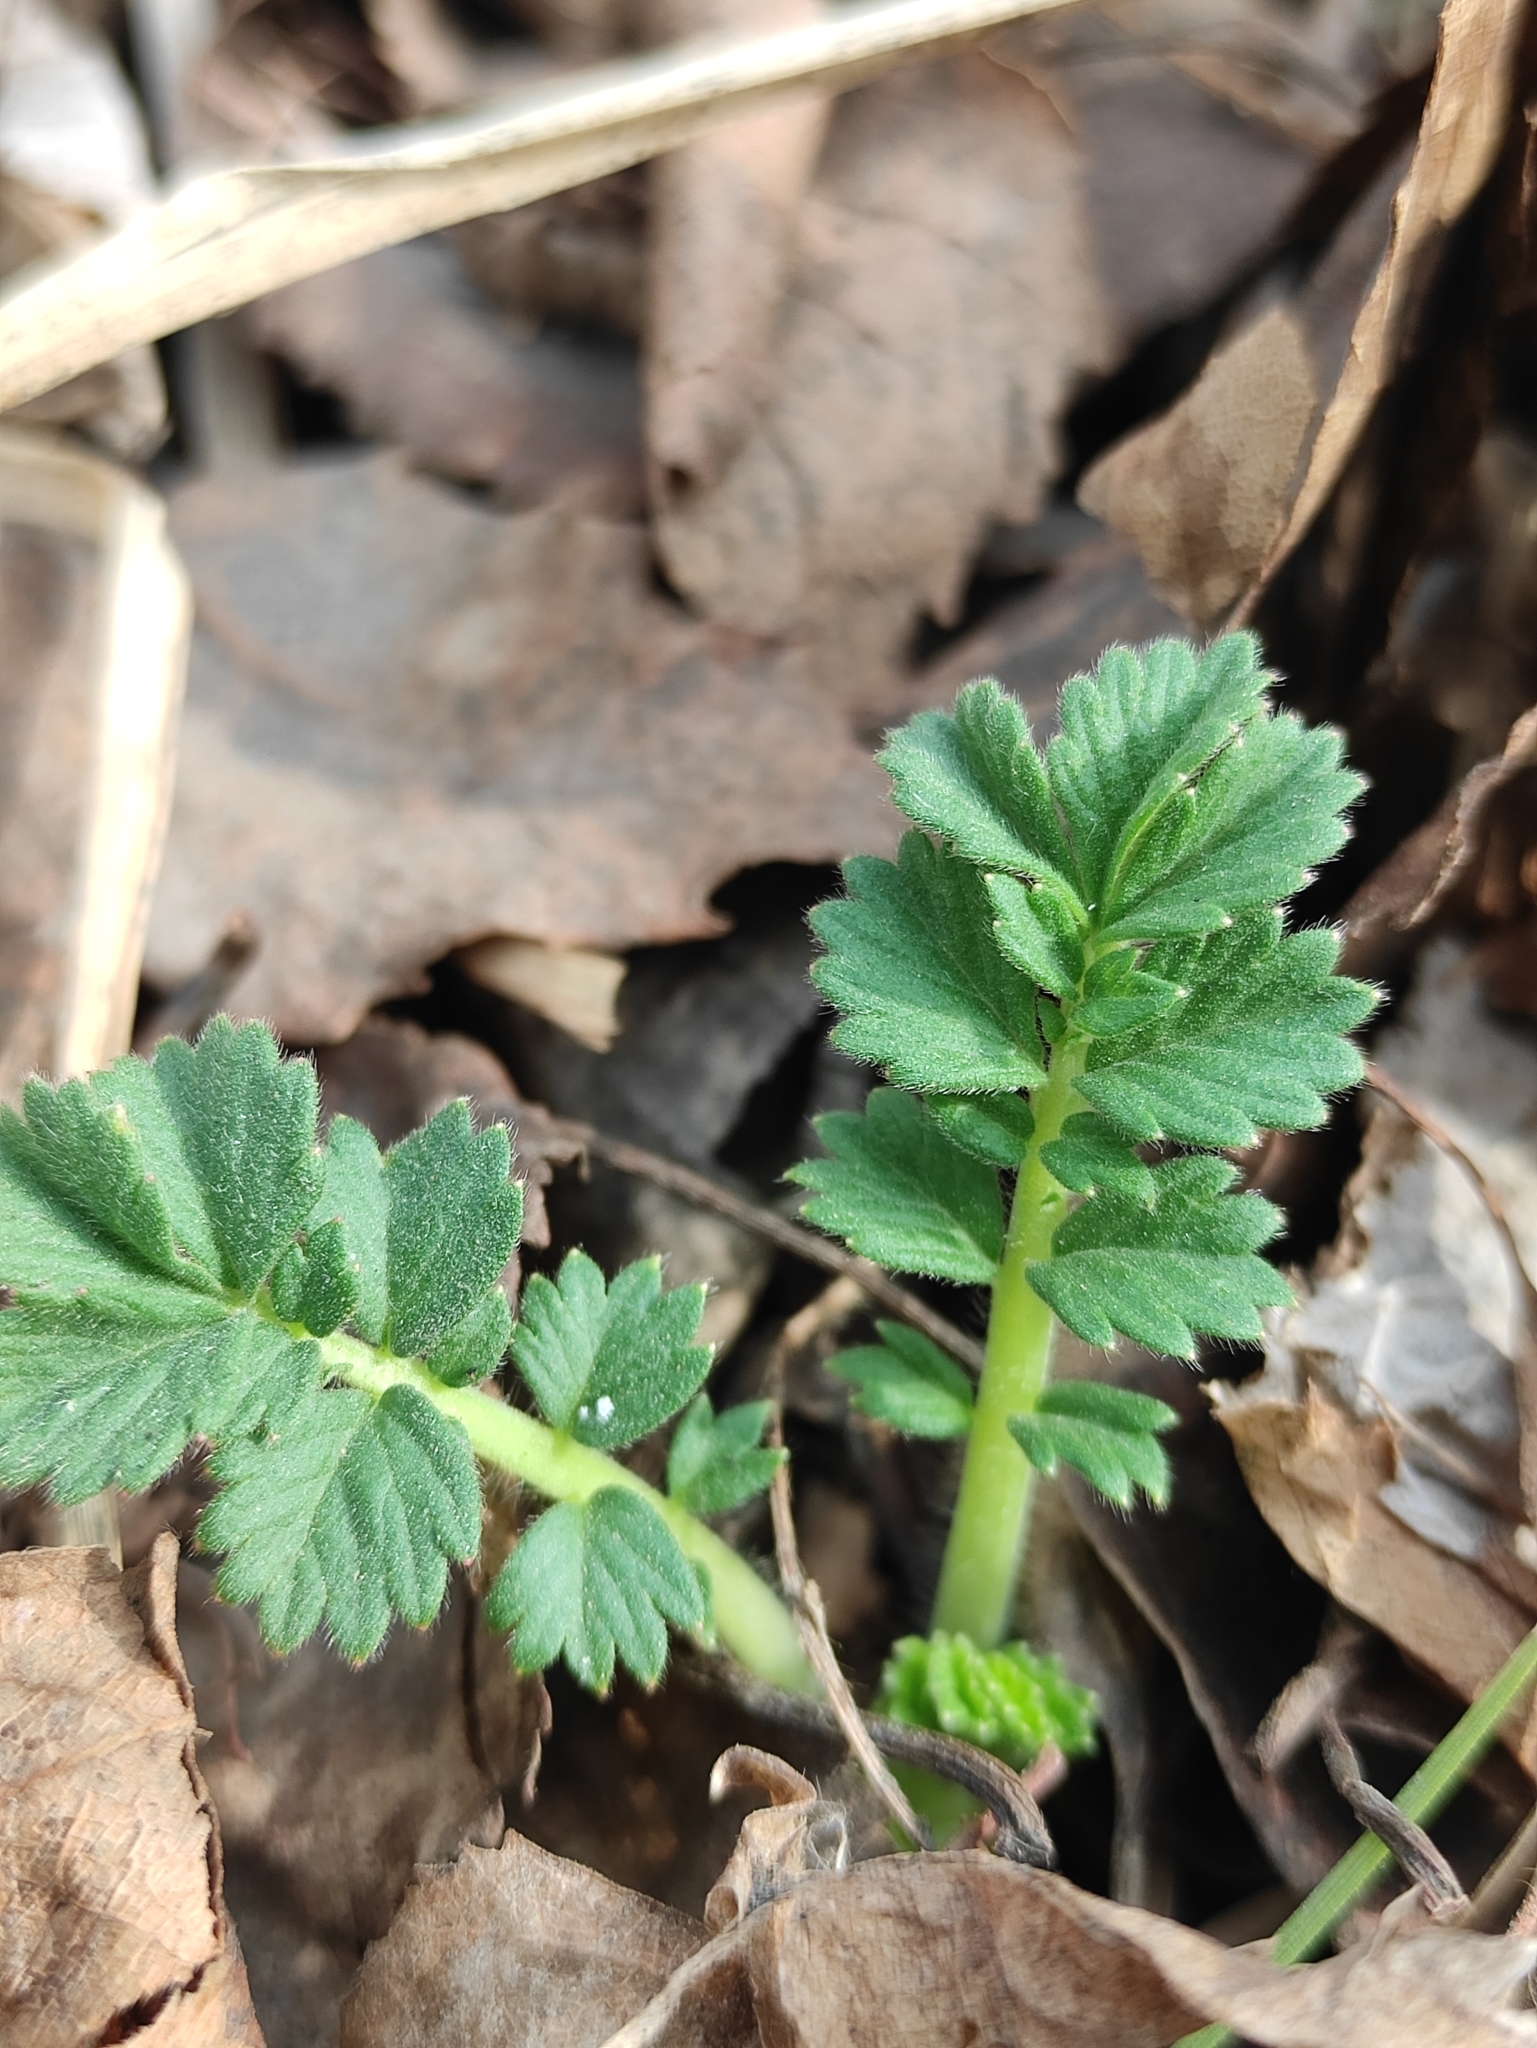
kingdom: Plantae
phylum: Tracheophyta
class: Magnoliopsida
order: Rosales
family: Rosaceae
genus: Agrimonia
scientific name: Agrimonia pilosa
